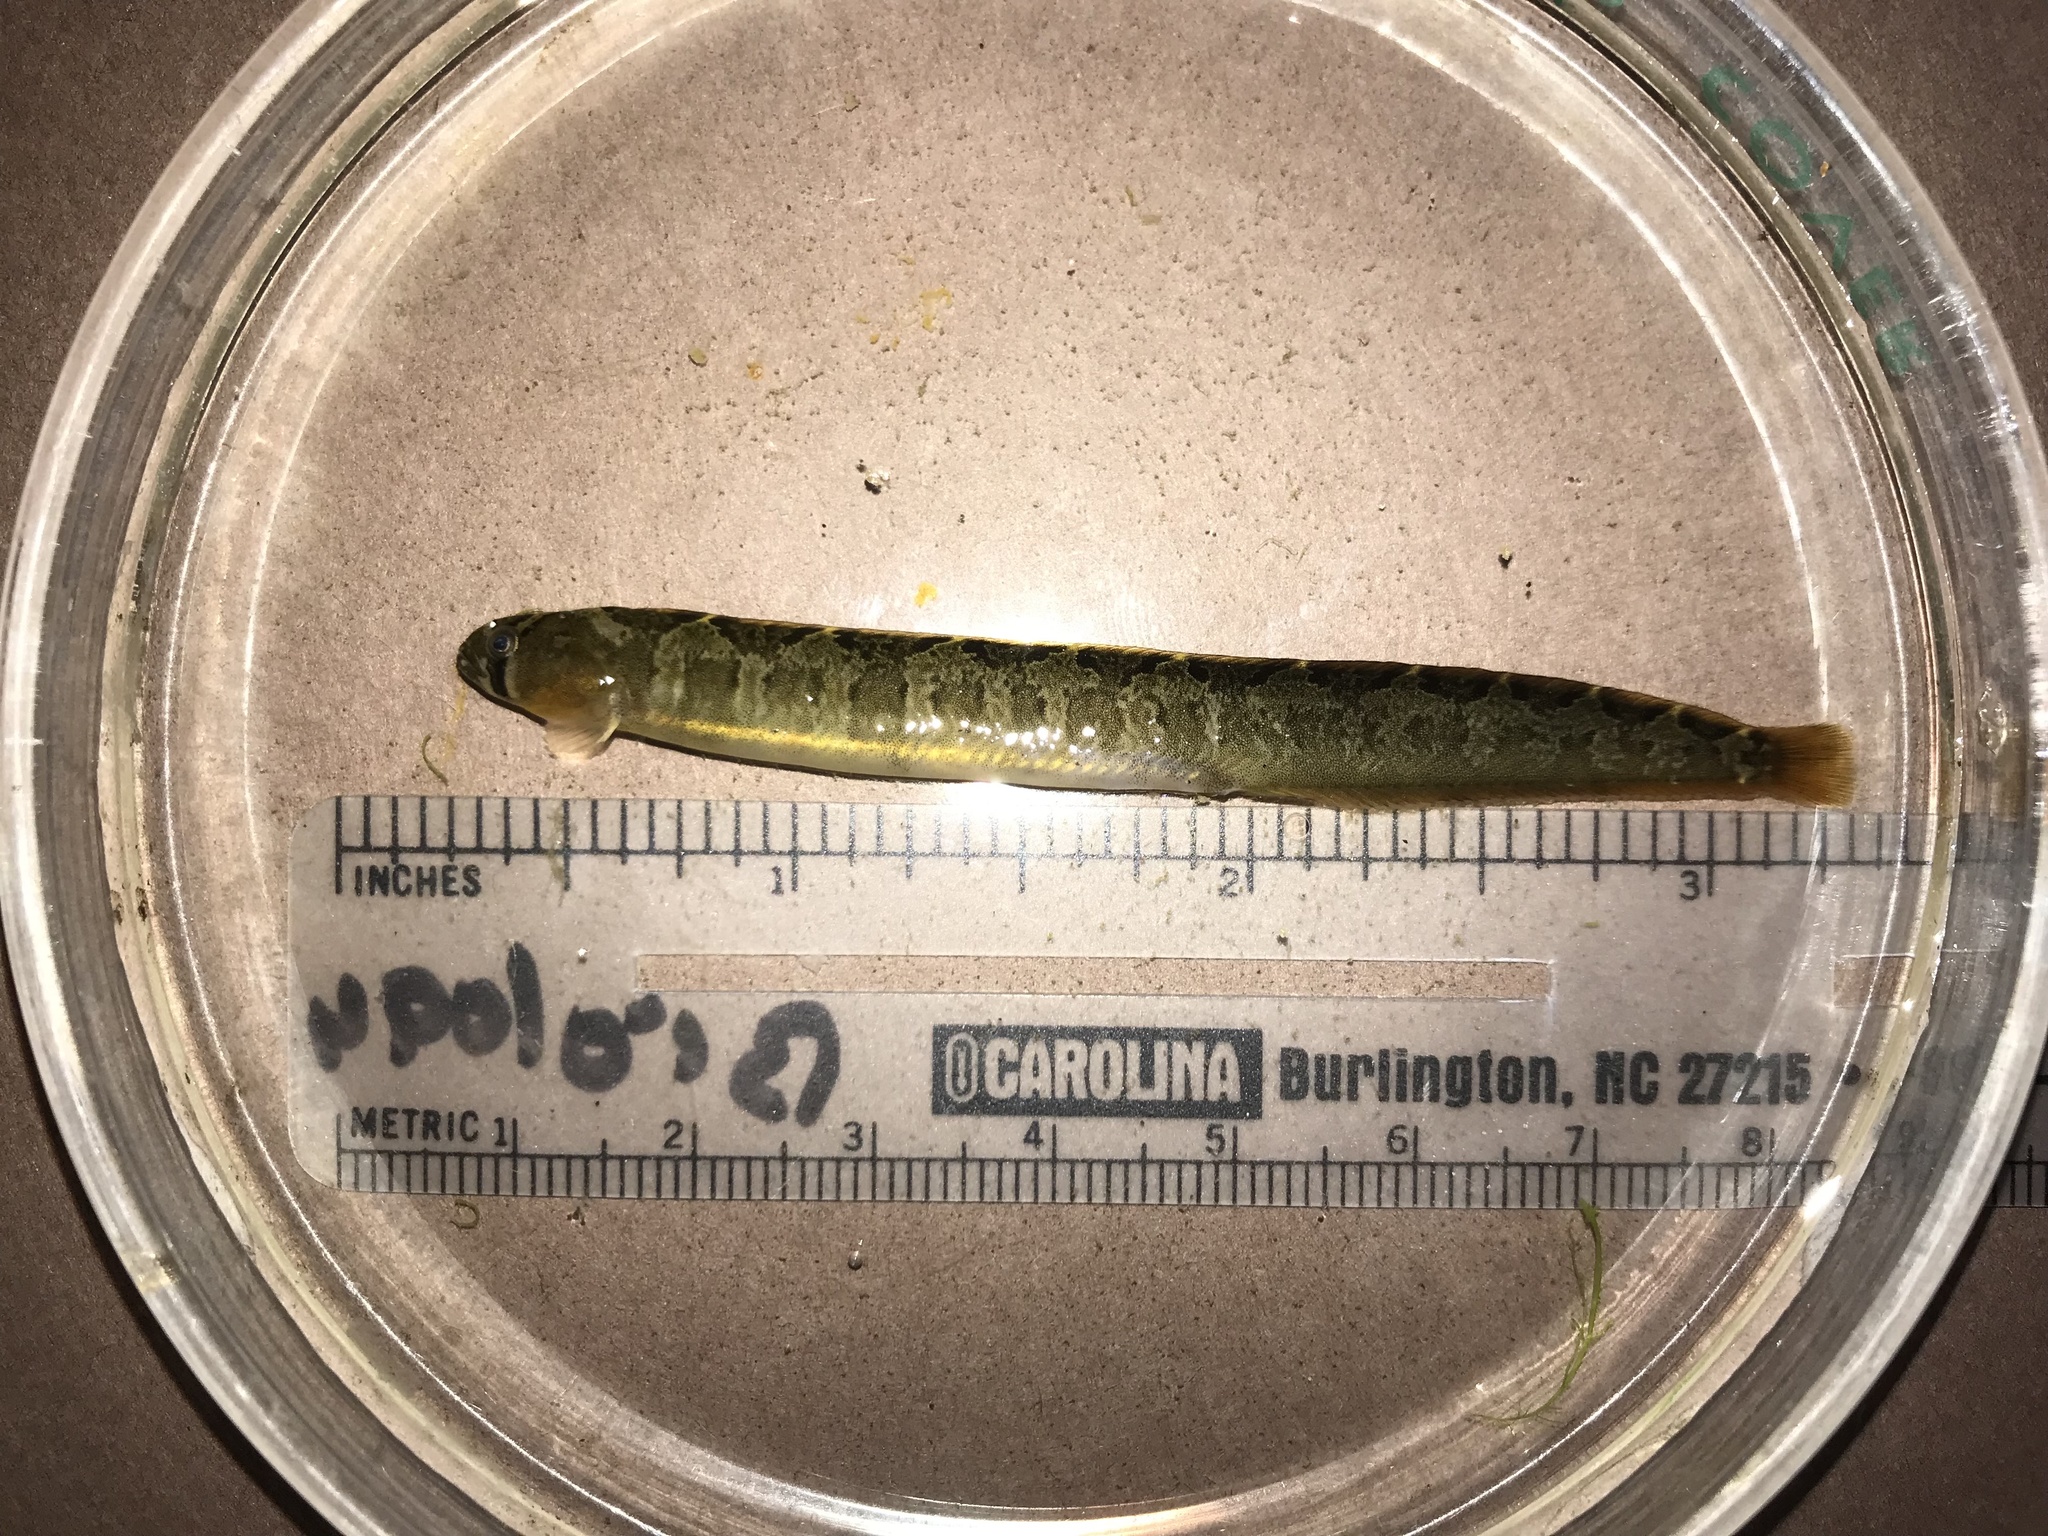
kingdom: Animalia
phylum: Chordata
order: Perciformes
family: Pholidae
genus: Pholis
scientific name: Pholis ornata
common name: Saddleback gunnel
